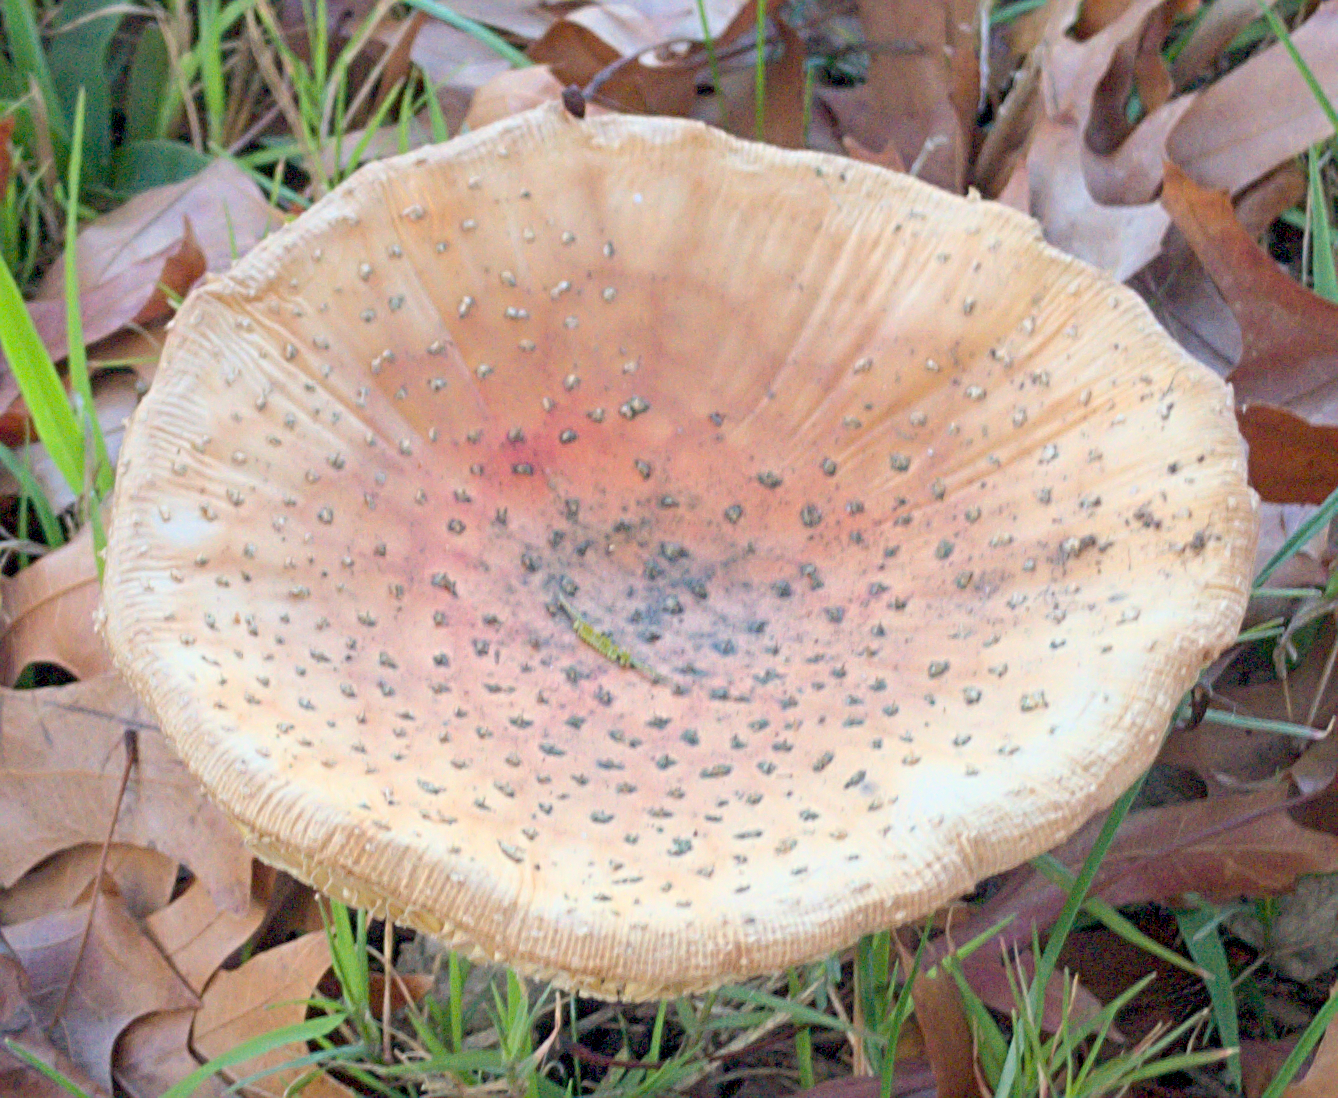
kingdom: Fungi
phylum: Basidiomycota
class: Agaricomycetes
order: Agaricales
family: Amanitaceae
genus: Amanita
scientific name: Amanita muscaria
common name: Fly agaric
